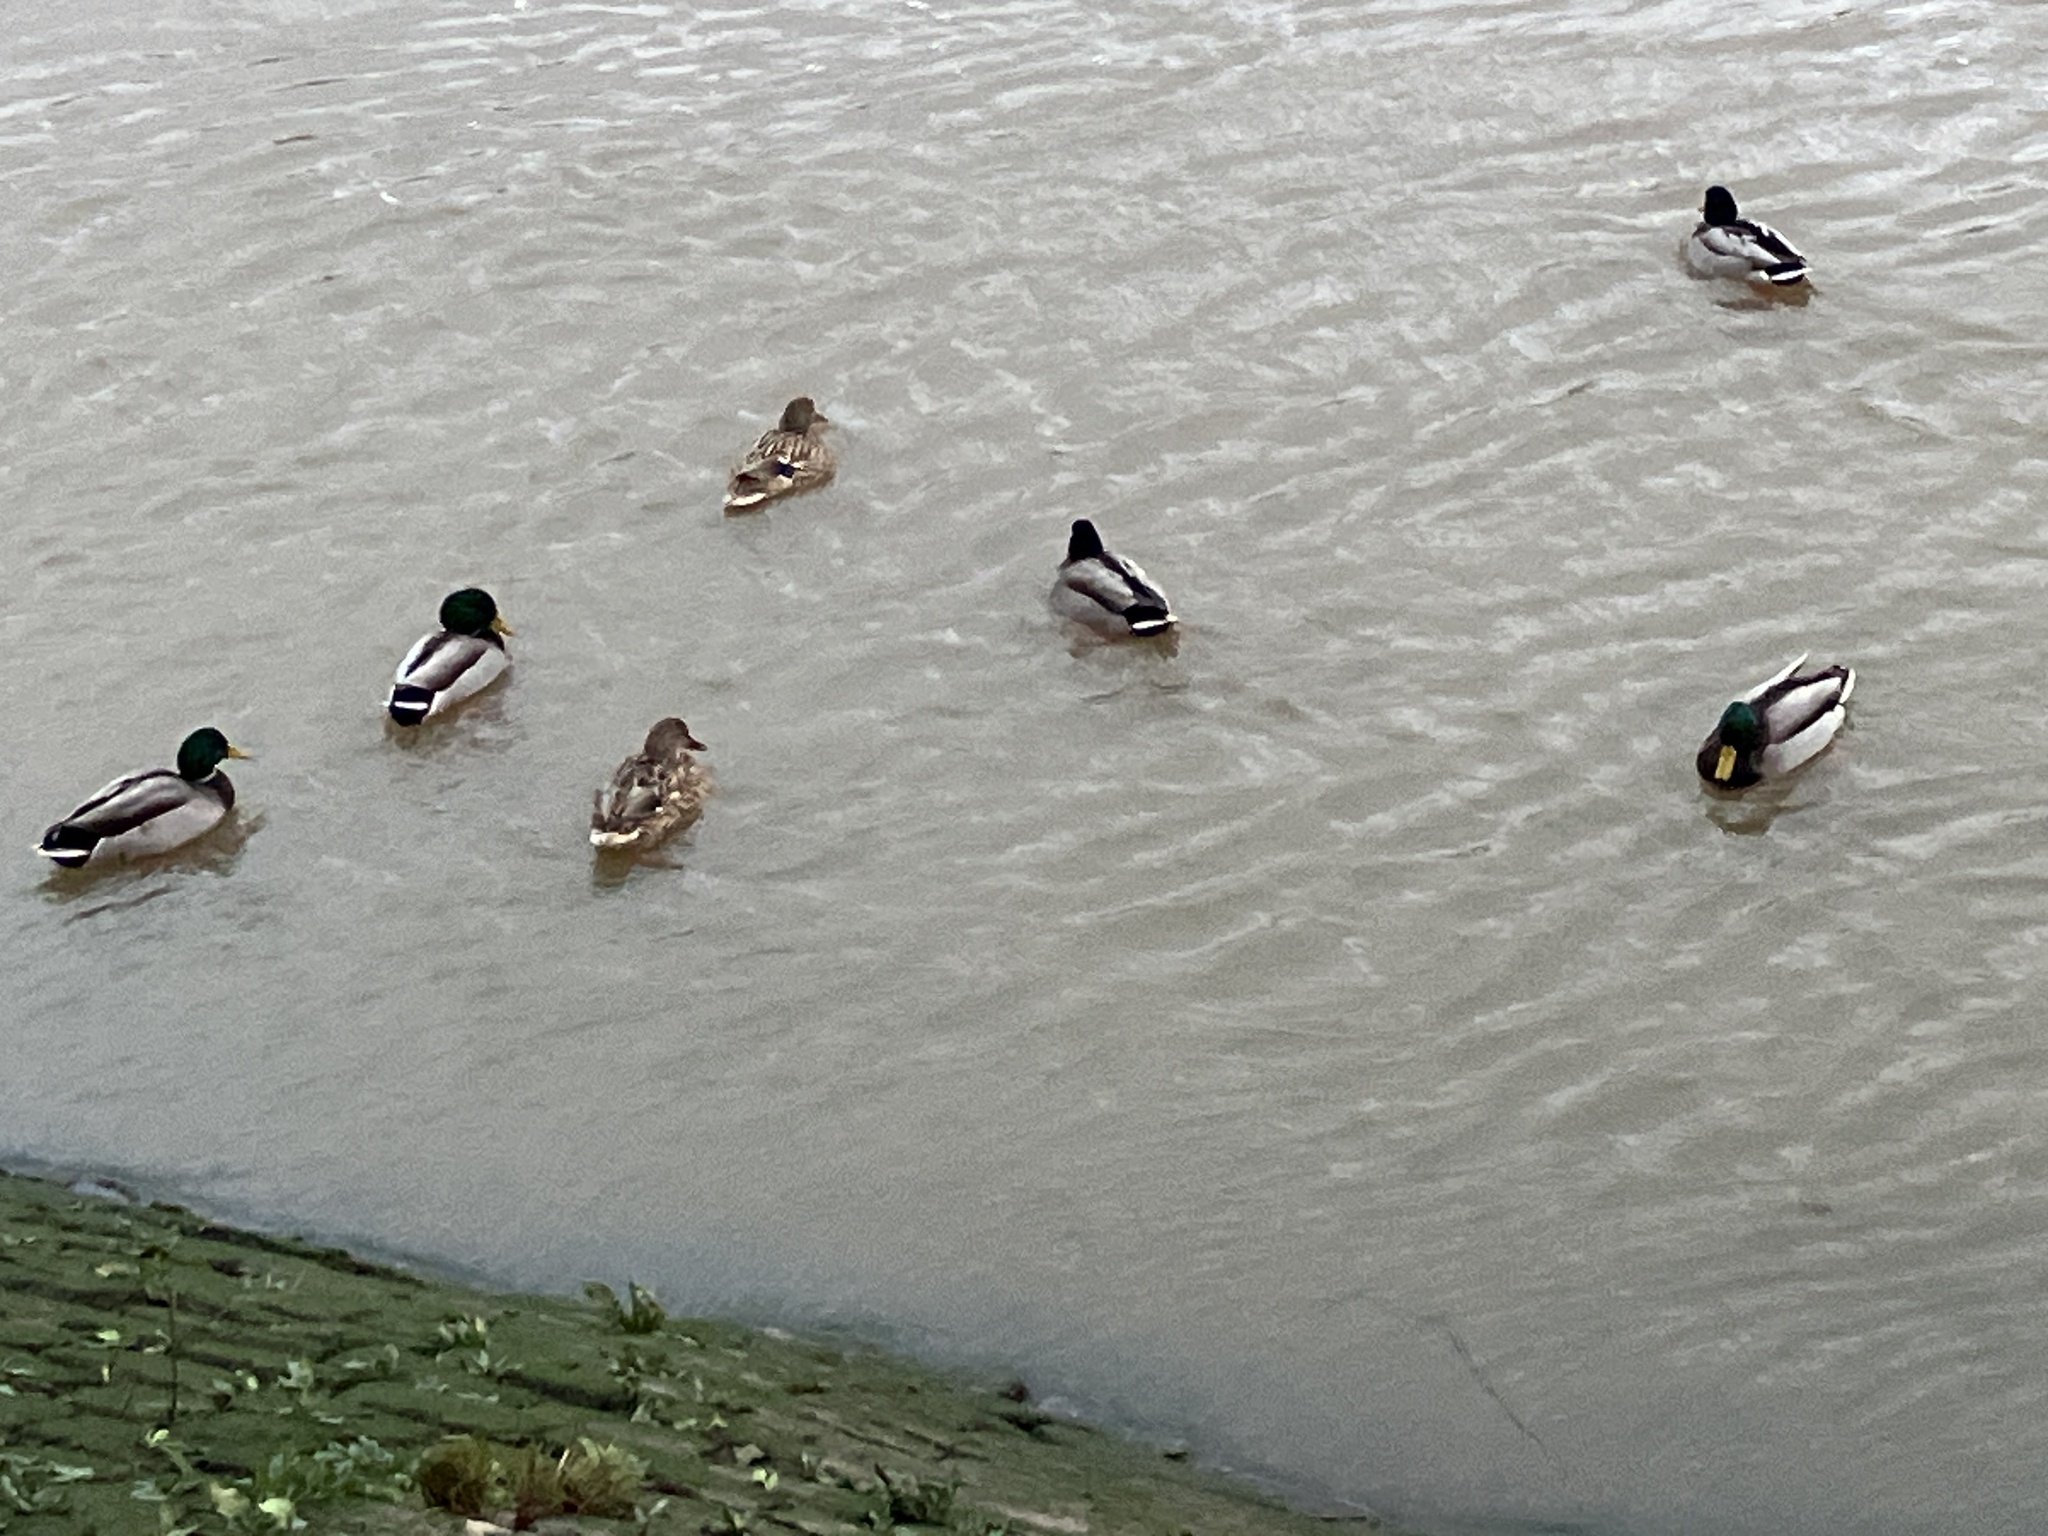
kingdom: Animalia
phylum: Chordata
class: Aves
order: Anseriformes
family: Anatidae
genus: Anas
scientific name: Anas platyrhynchos
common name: Mallard
